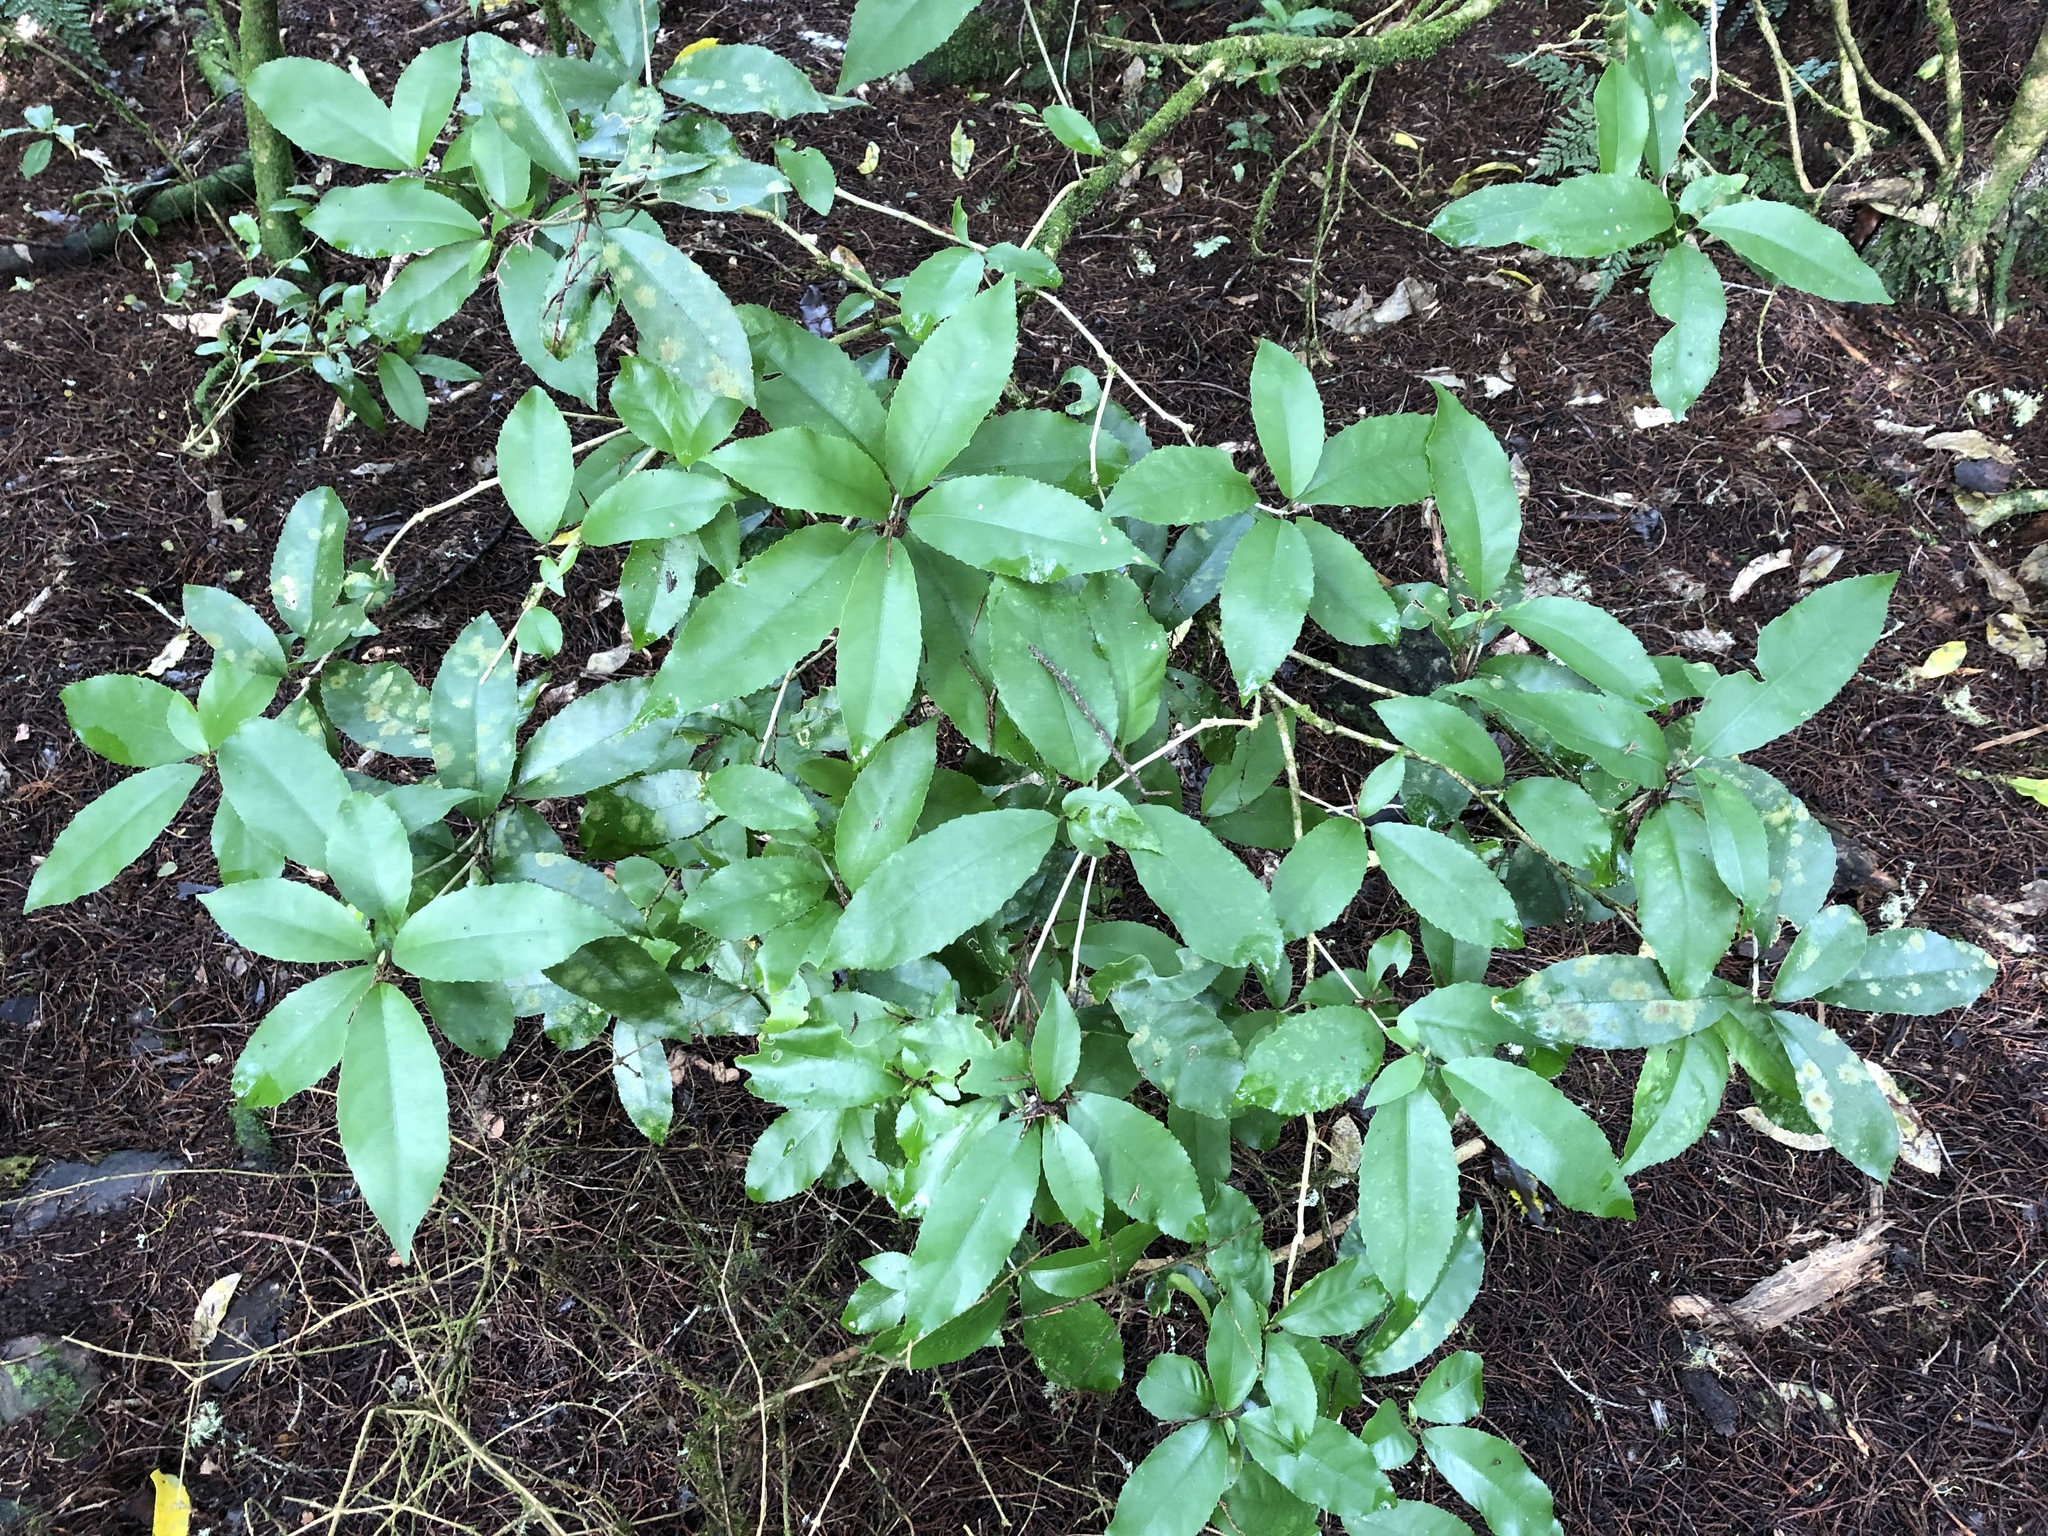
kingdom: Plantae
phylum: Tracheophyta
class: Magnoliopsida
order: Malpighiales
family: Violaceae
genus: Melicytus
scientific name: Melicytus ramiflorus
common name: Mahoe
